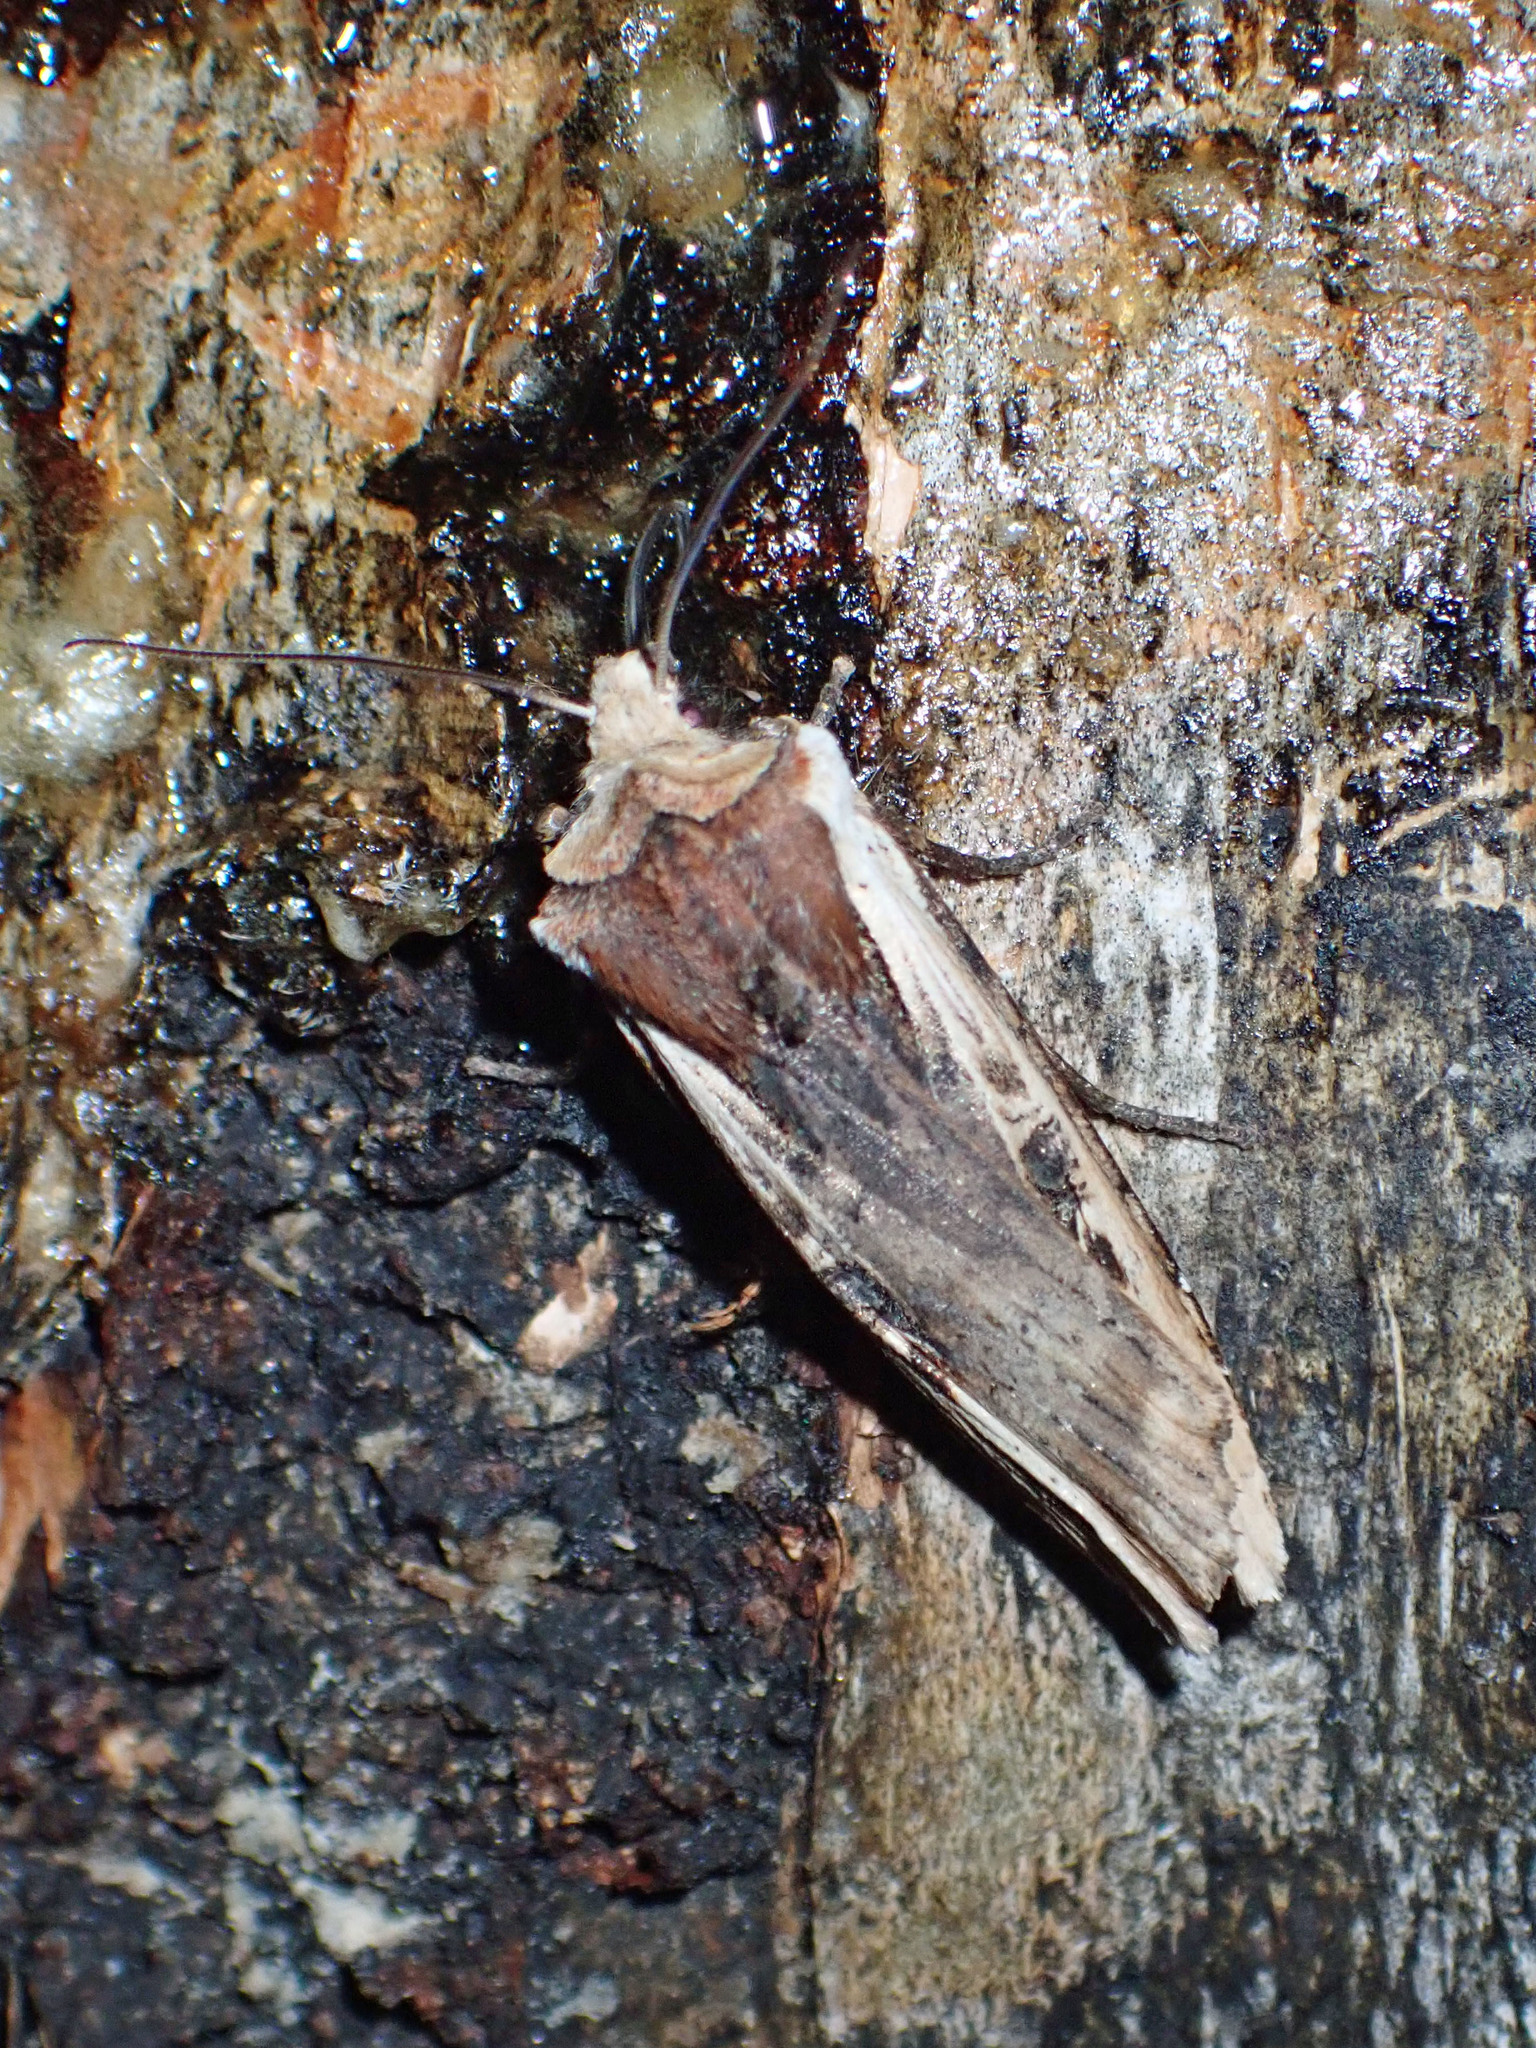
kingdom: Animalia
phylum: Arthropoda
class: Insecta
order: Lepidoptera
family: Noctuidae
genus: Xylena
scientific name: Xylena curvimacula
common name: Dot-and-dash swordgrass moth
